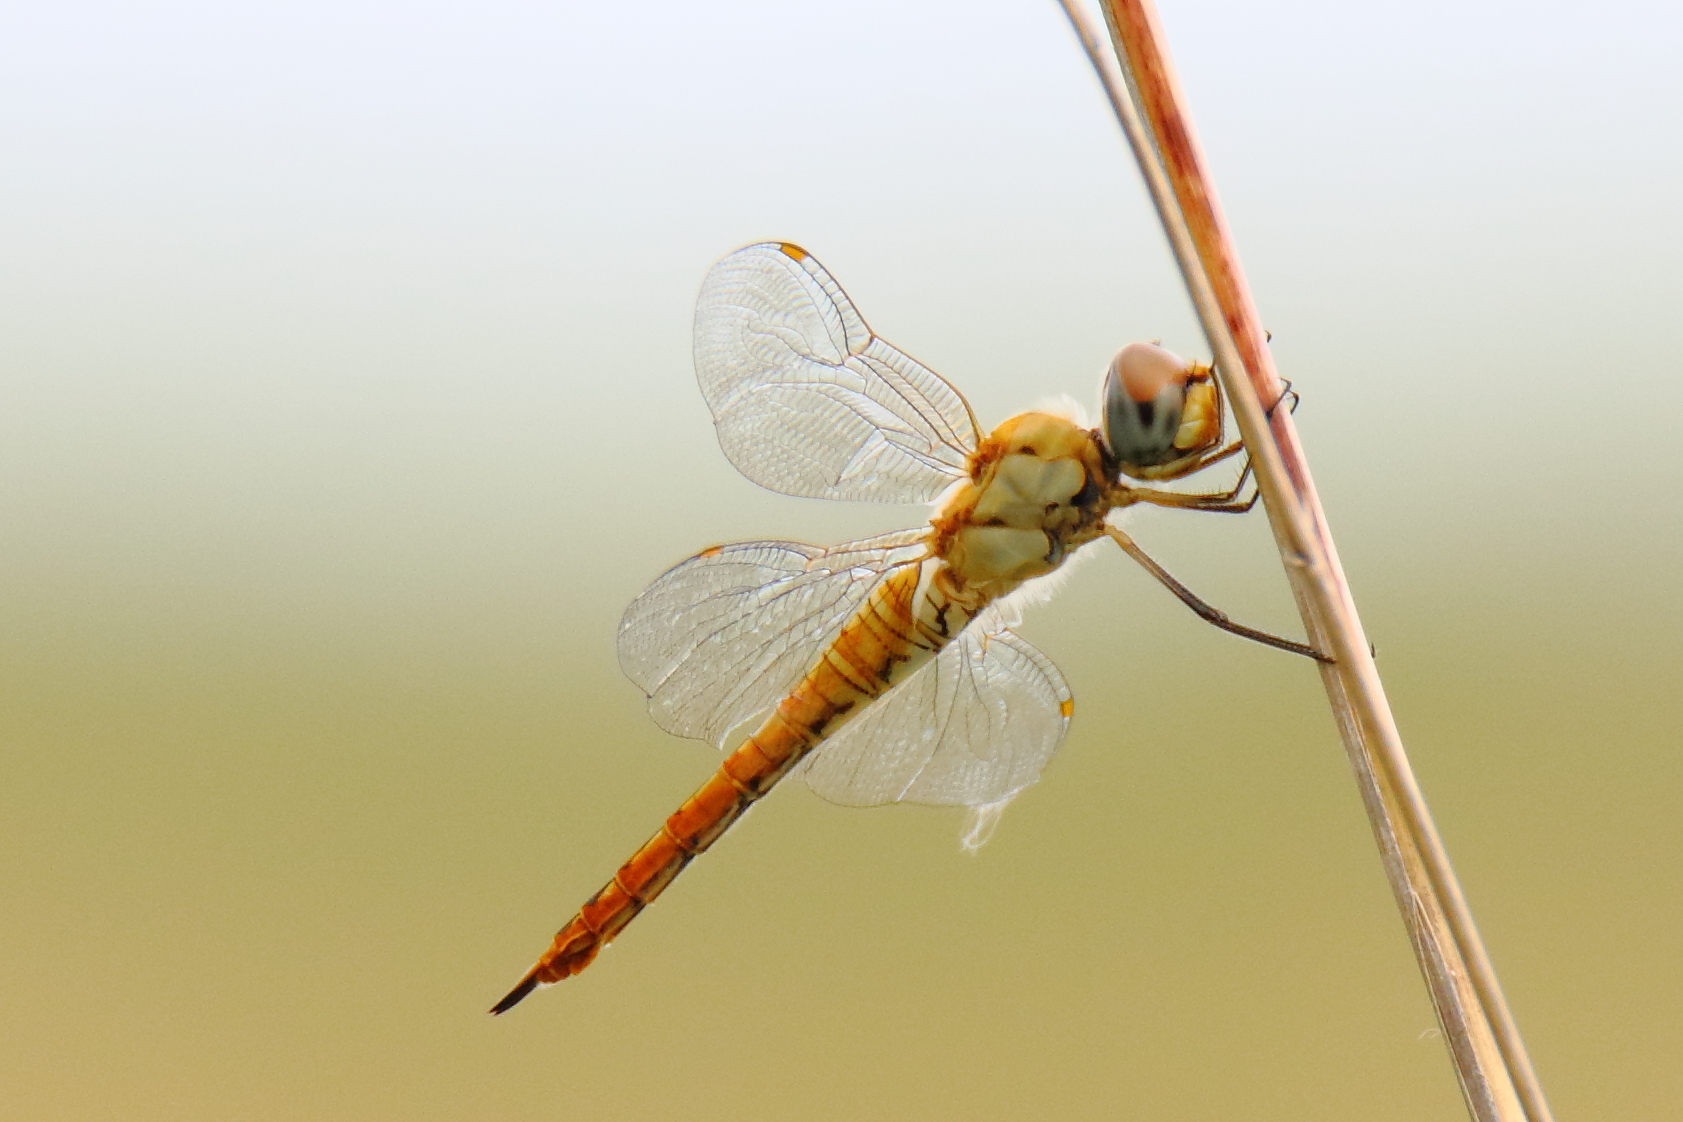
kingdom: Animalia
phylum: Arthropoda
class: Insecta
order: Odonata
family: Libellulidae
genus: Pantala
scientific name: Pantala flavescens
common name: Wandering glider
